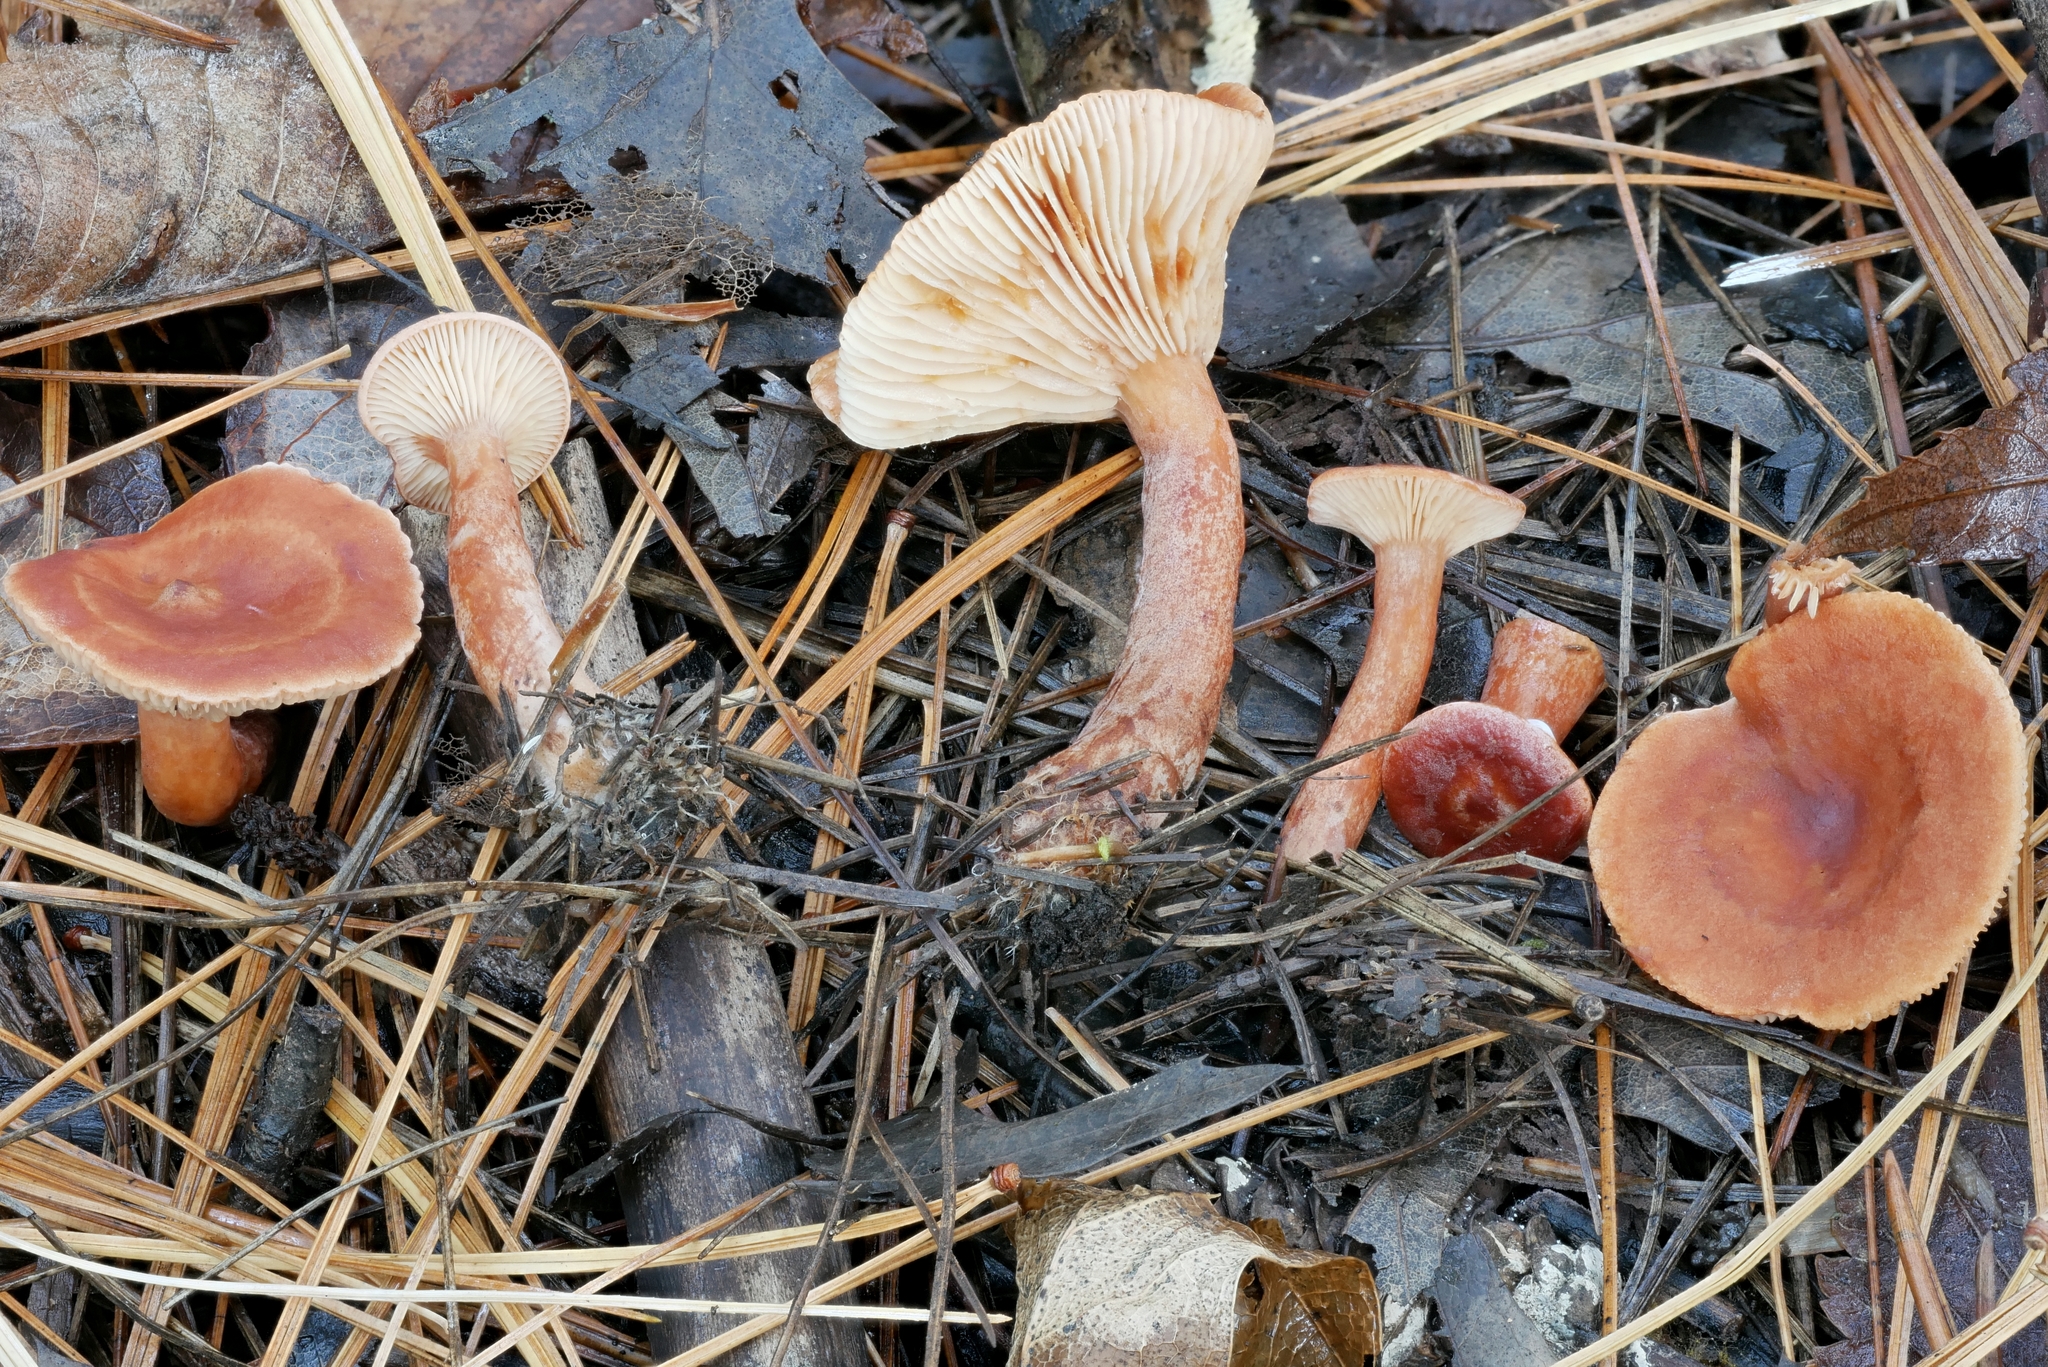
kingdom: Fungi
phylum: Basidiomycota
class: Agaricomycetes
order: Russulales
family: Russulaceae
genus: Lactarius
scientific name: Lactarius neotabidus
